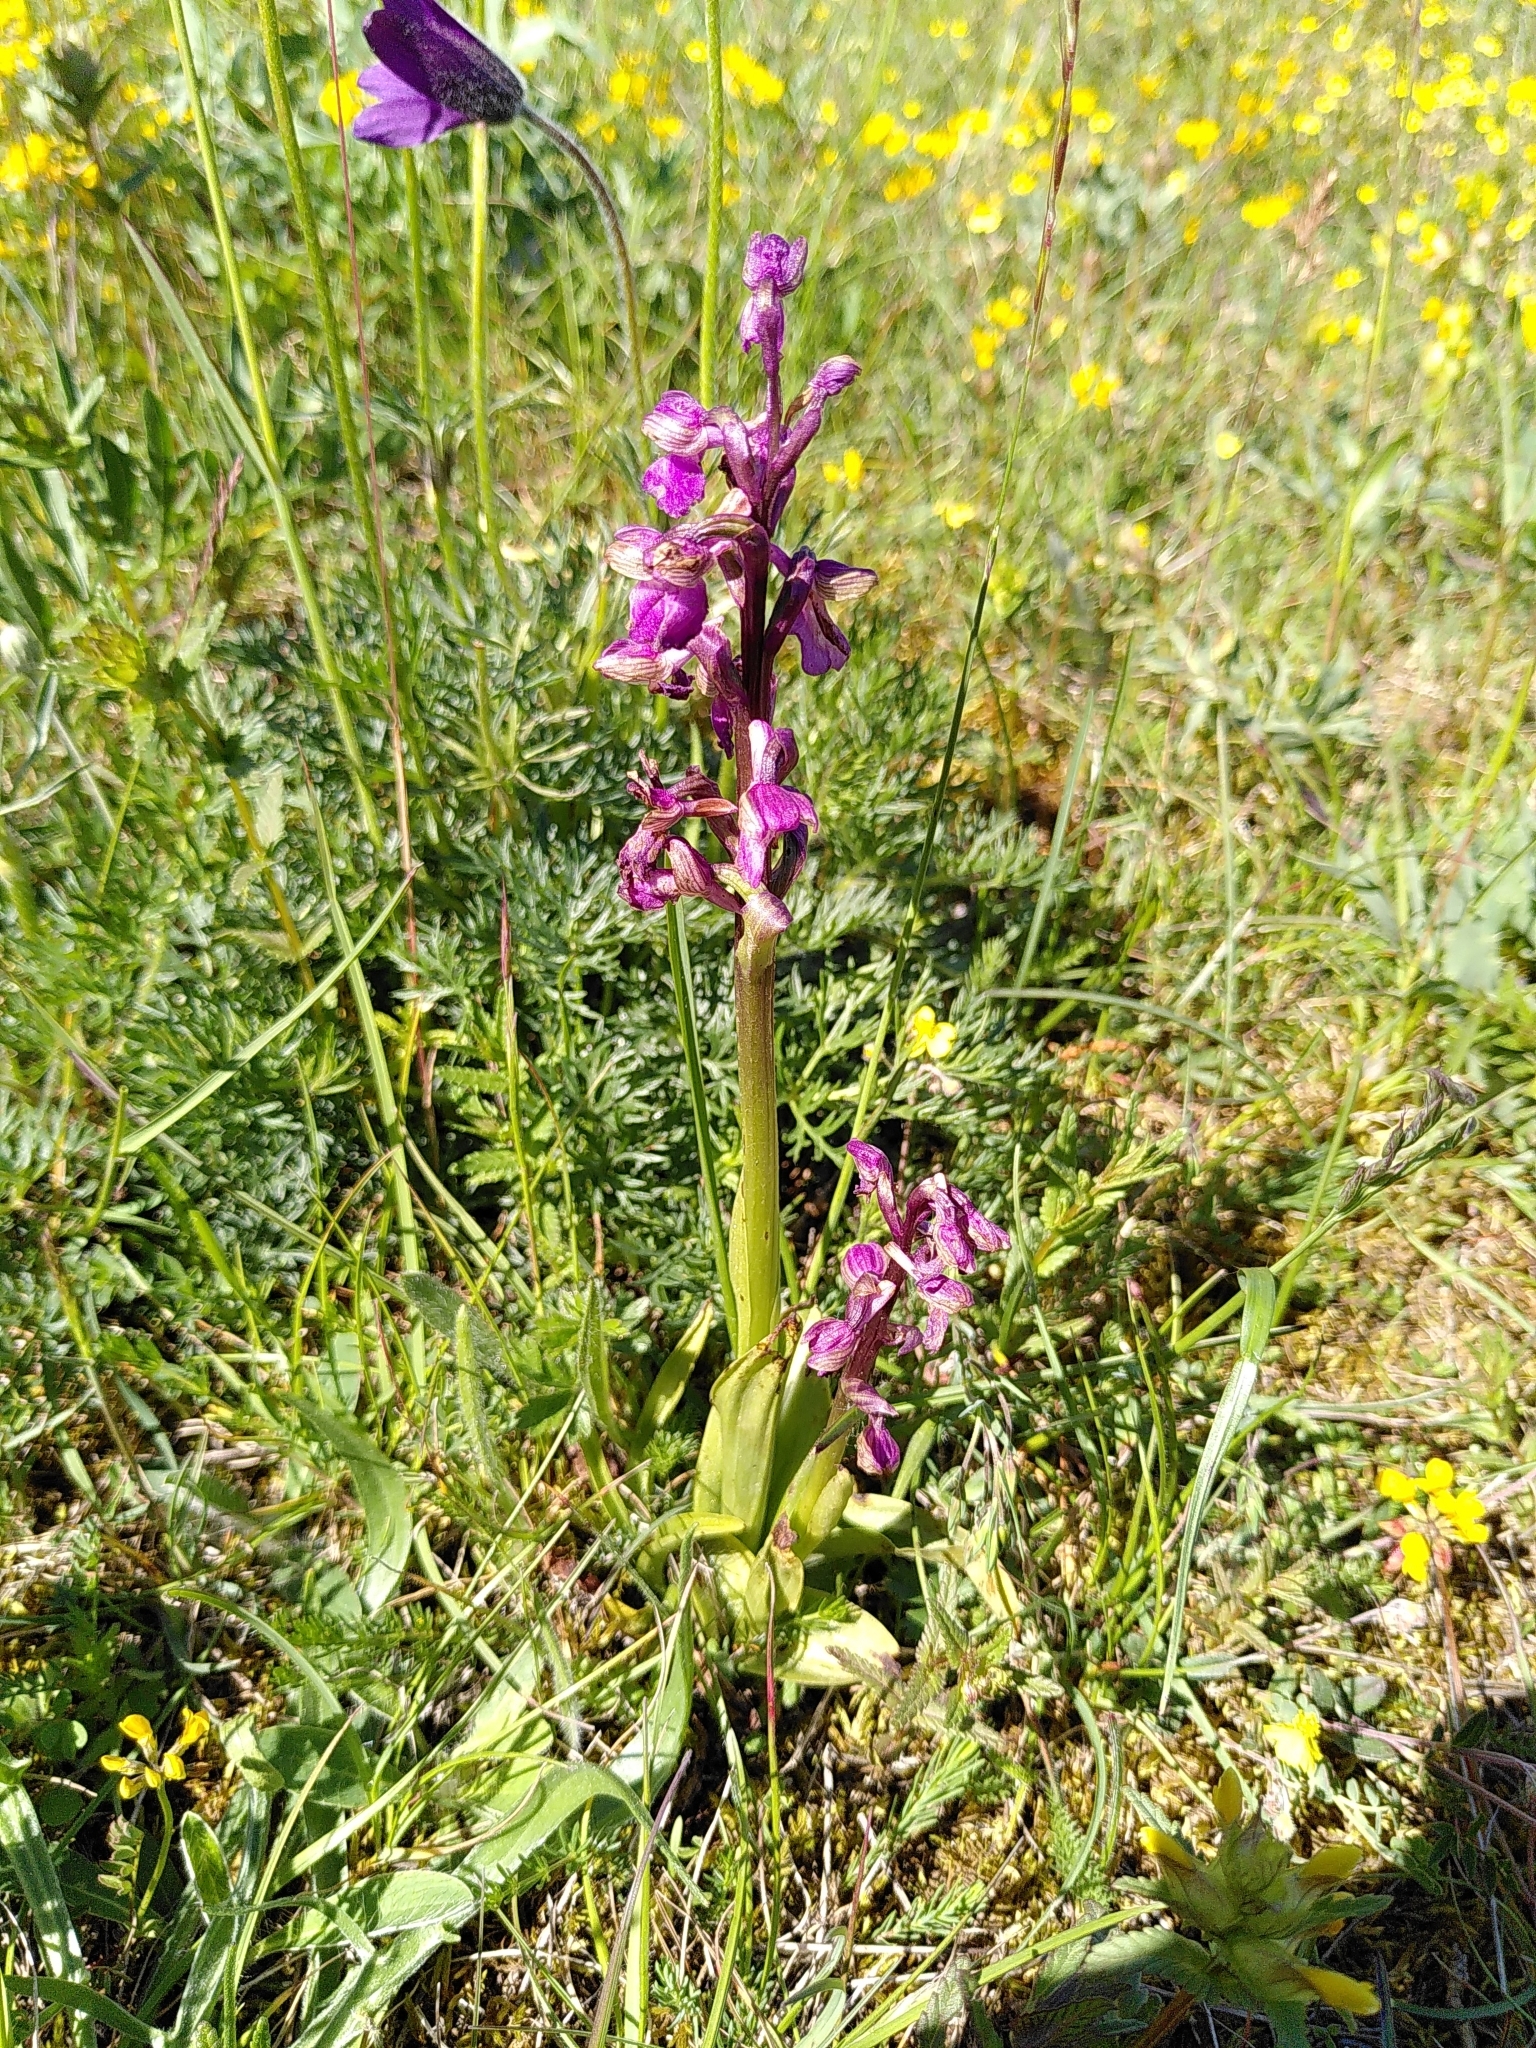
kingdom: Plantae
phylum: Tracheophyta
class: Liliopsida
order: Asparagales
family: Orchidaceae
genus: Anacamptis
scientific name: Anacamptis morio
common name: Green-winged orchid
